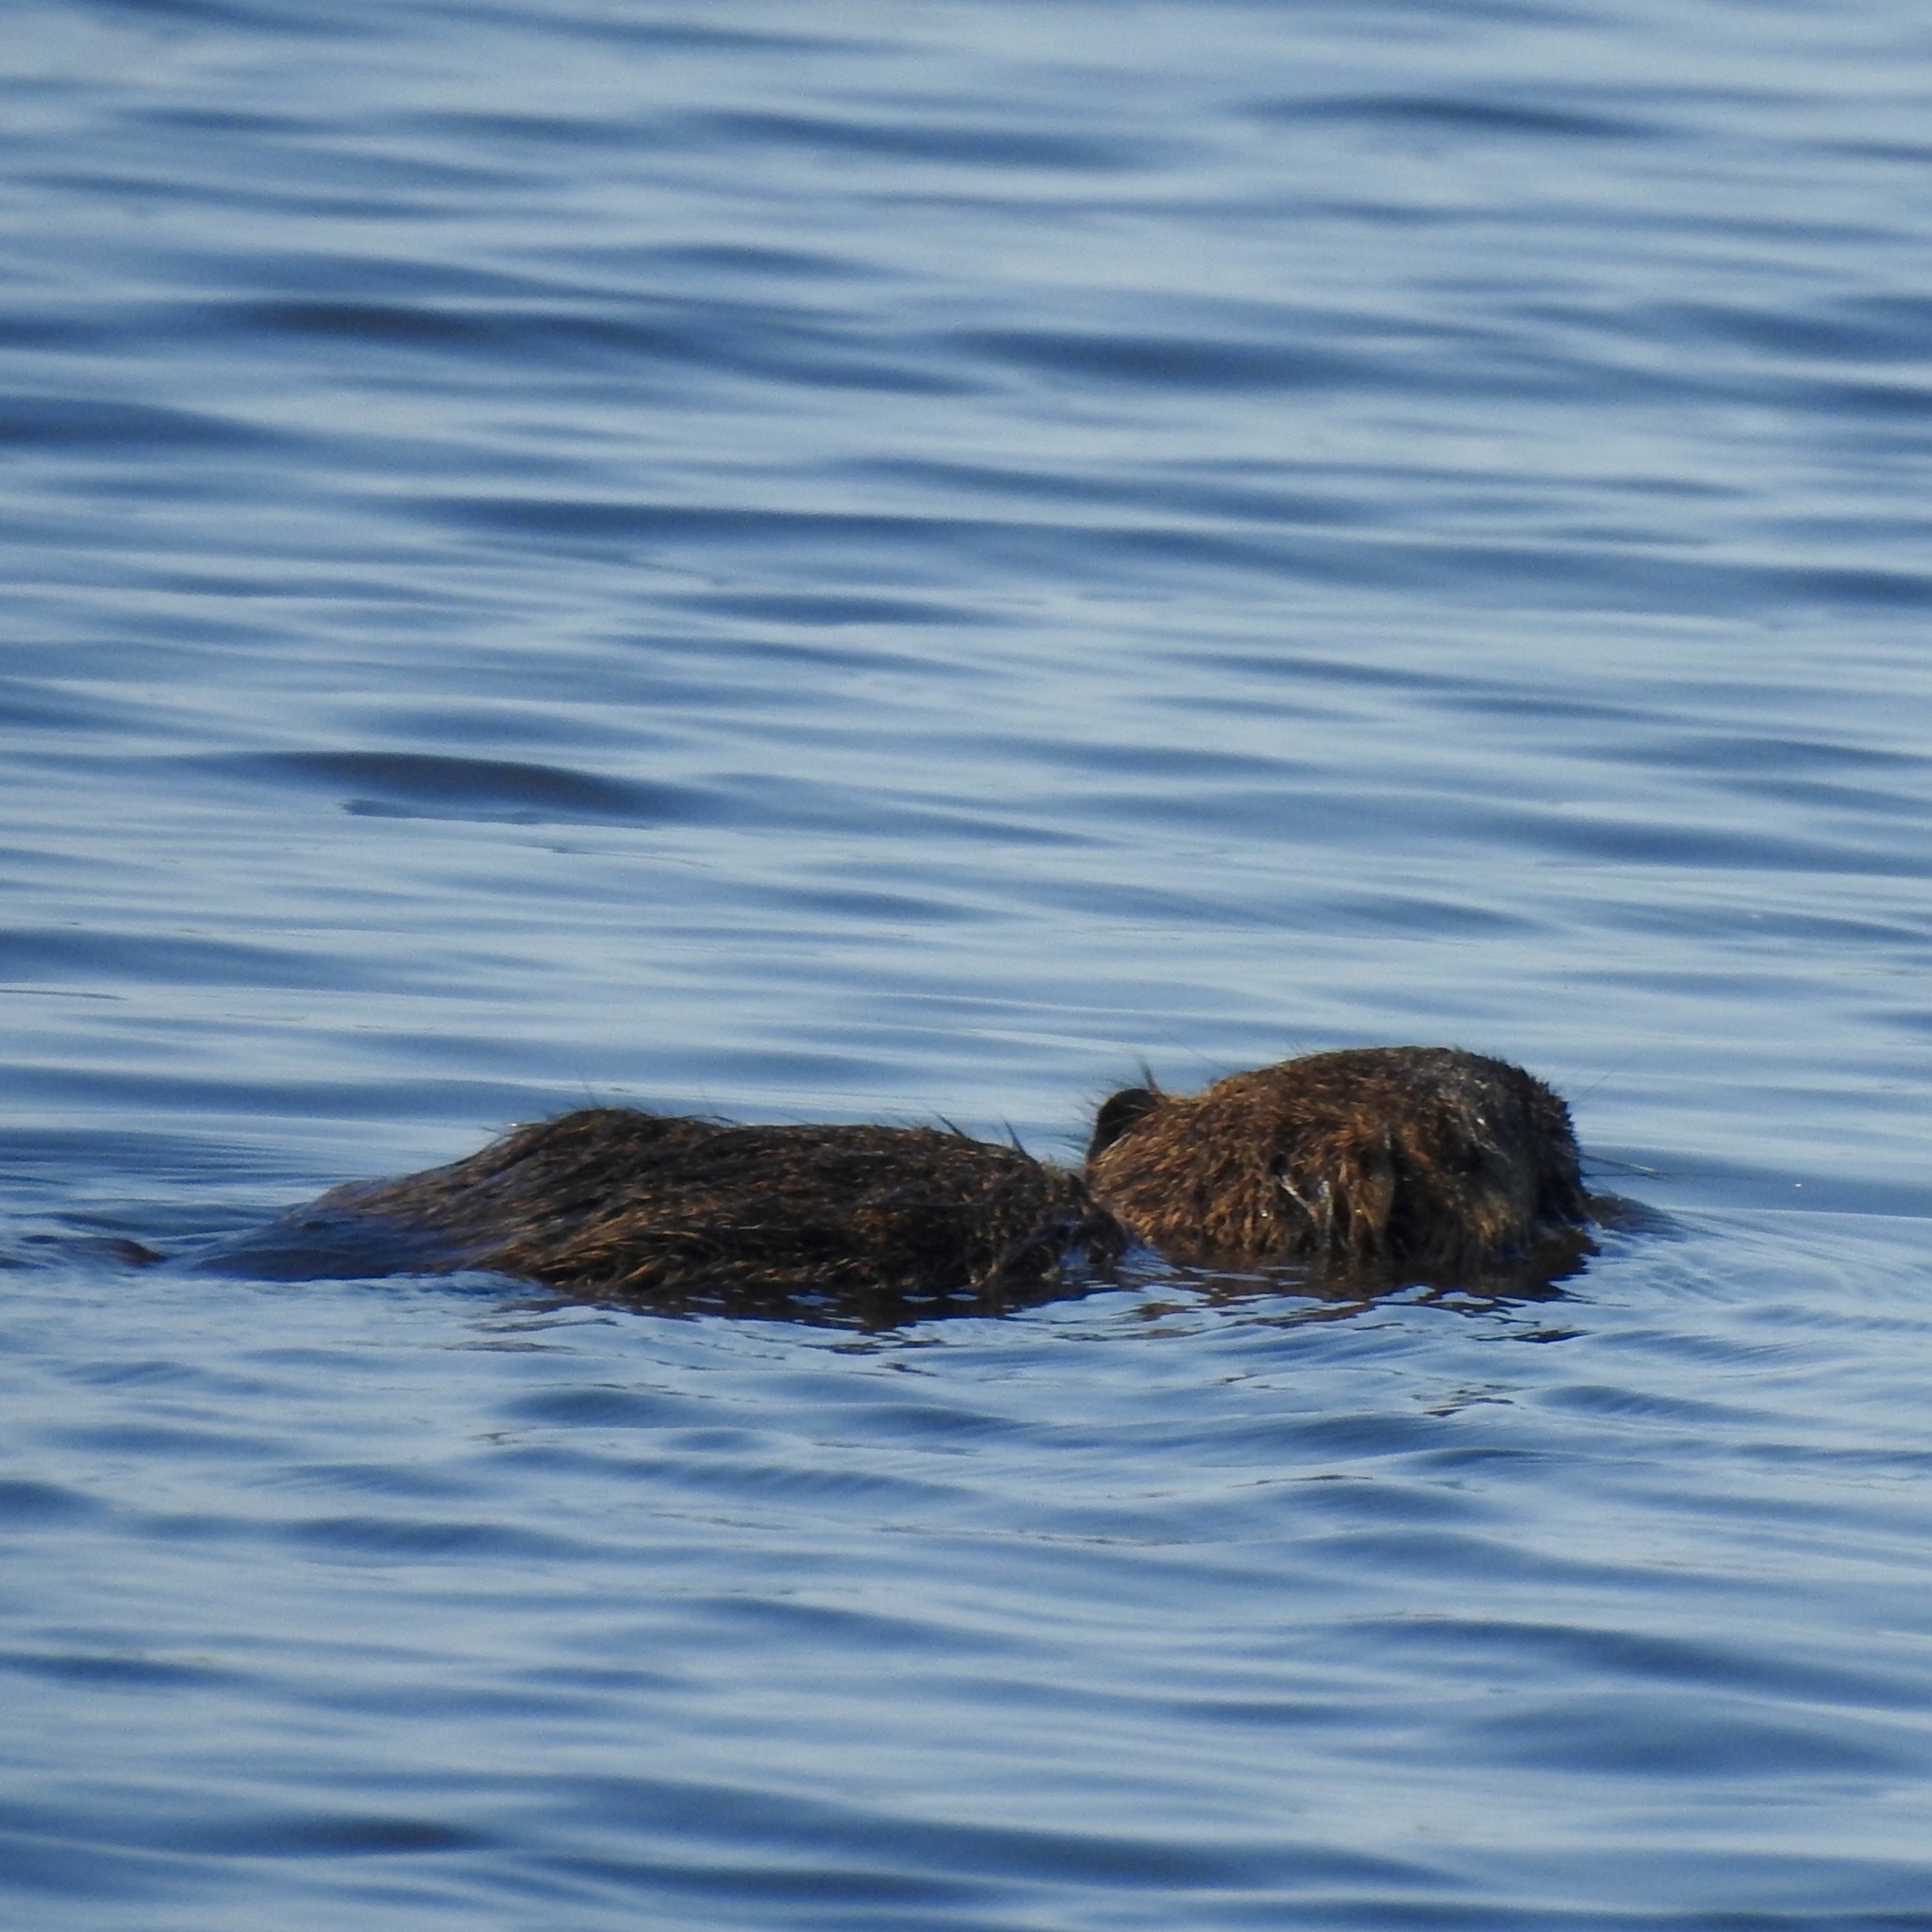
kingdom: Animalia
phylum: Chordata
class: Mammalia
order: Rodentia
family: Myocastoridae
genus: Myocastor
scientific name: Myocastor coypus
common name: Coypu
